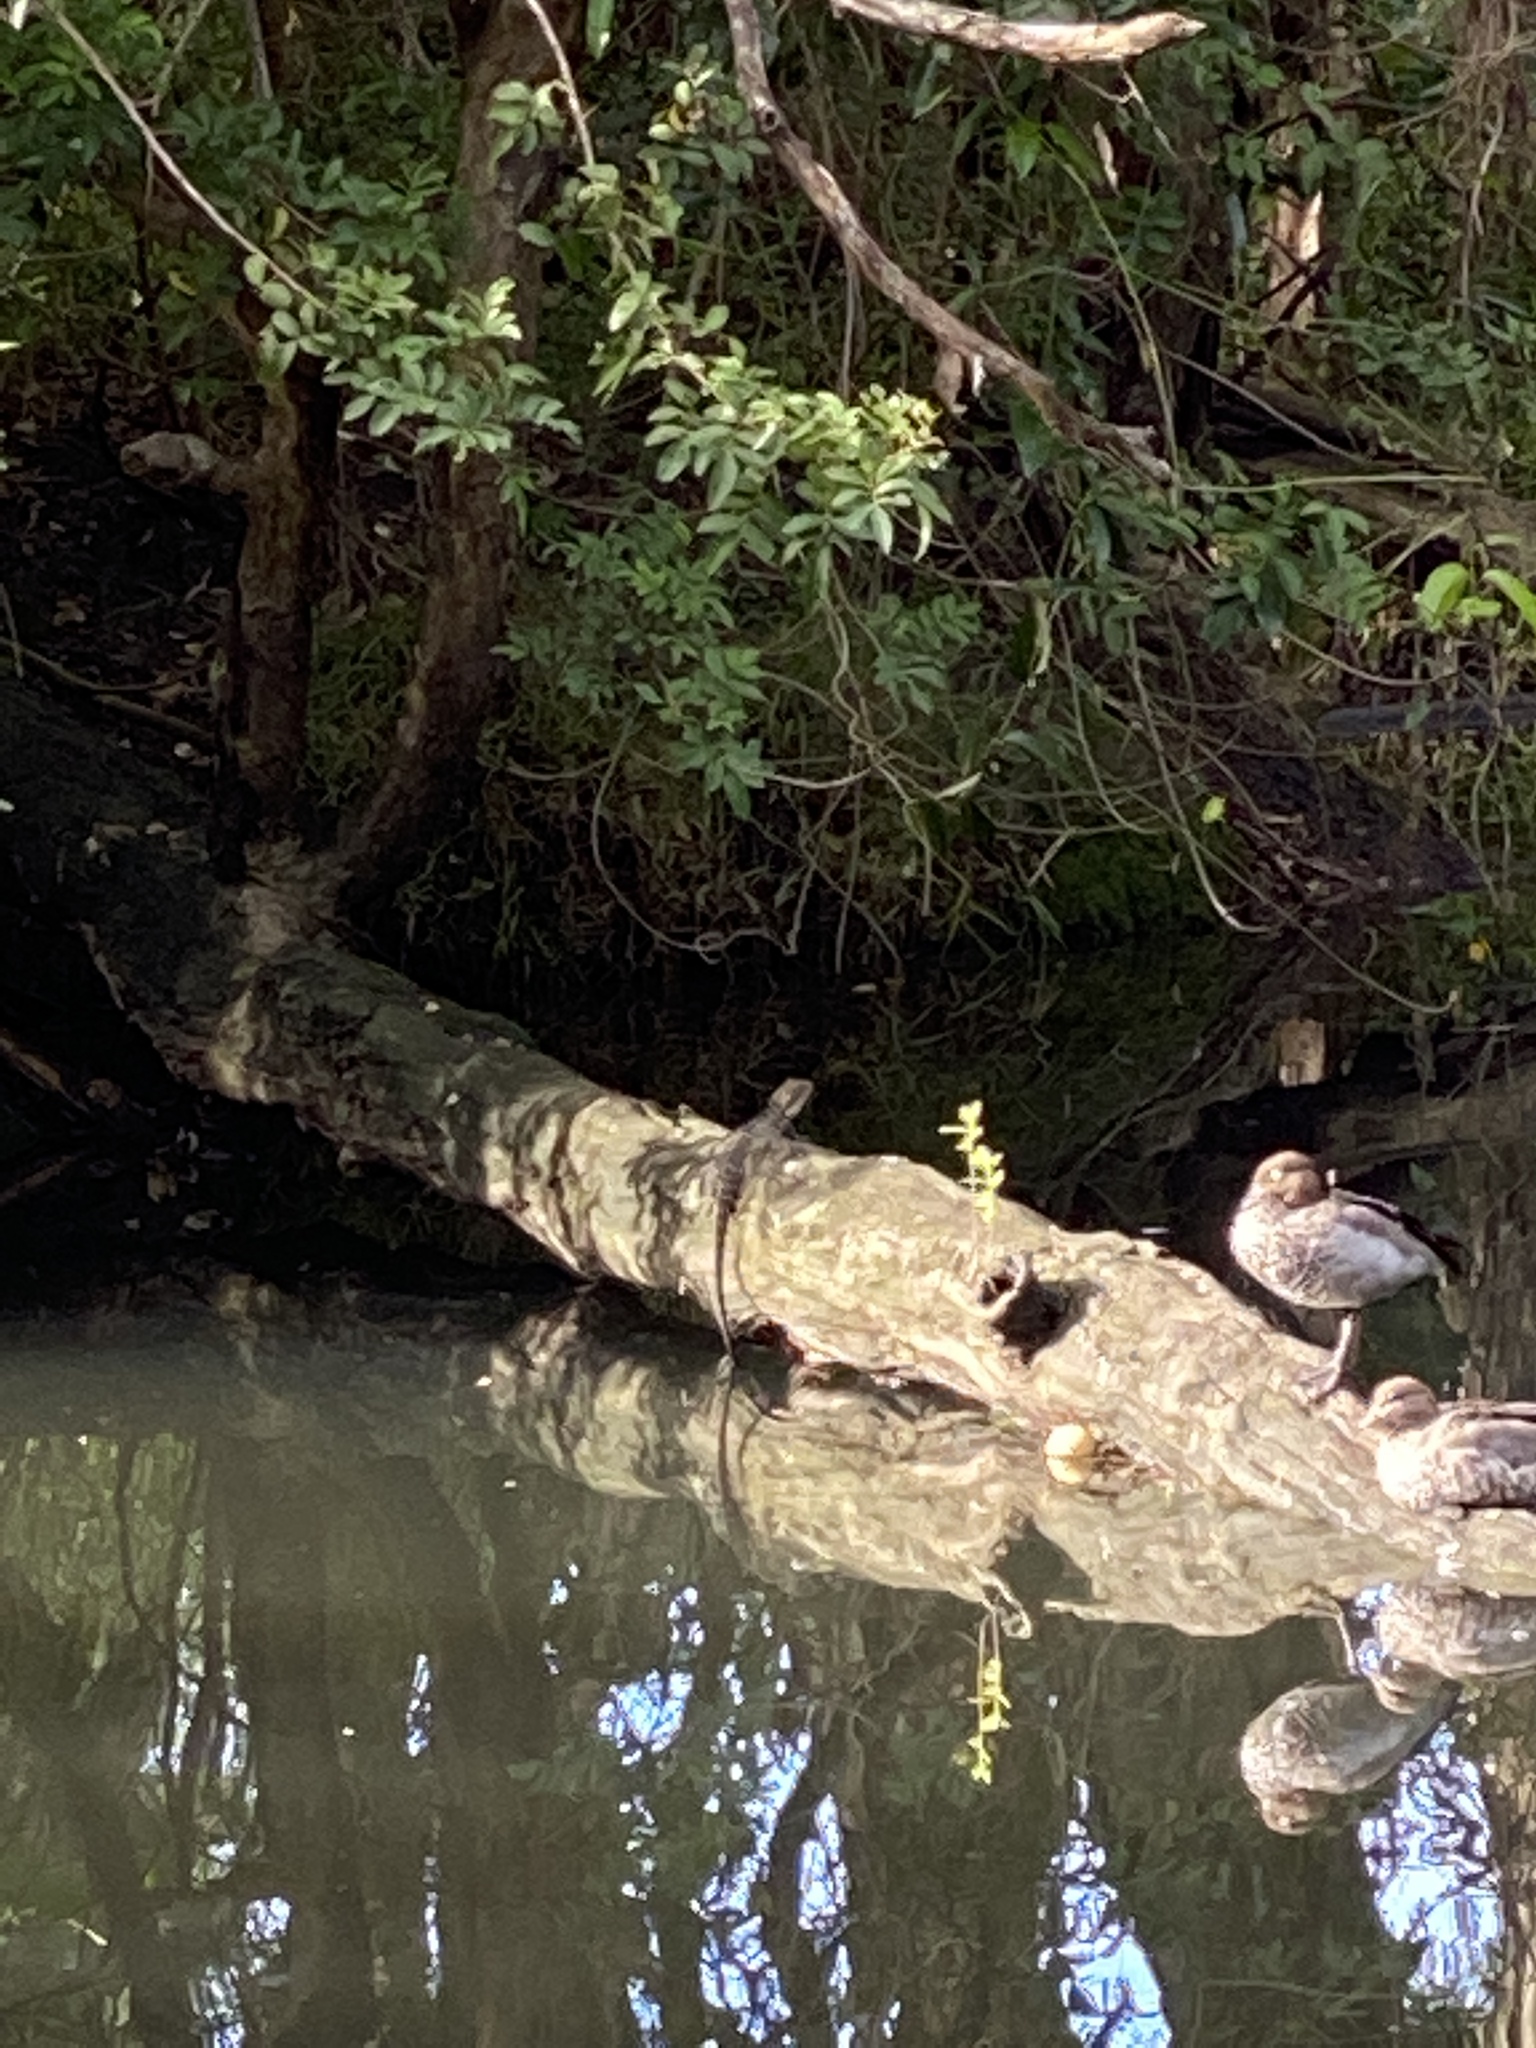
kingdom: Animalia
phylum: Chordata
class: Squamata
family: Agamidae
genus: Intellagama
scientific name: Intellagama lesueurii
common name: Eastern water dragon
